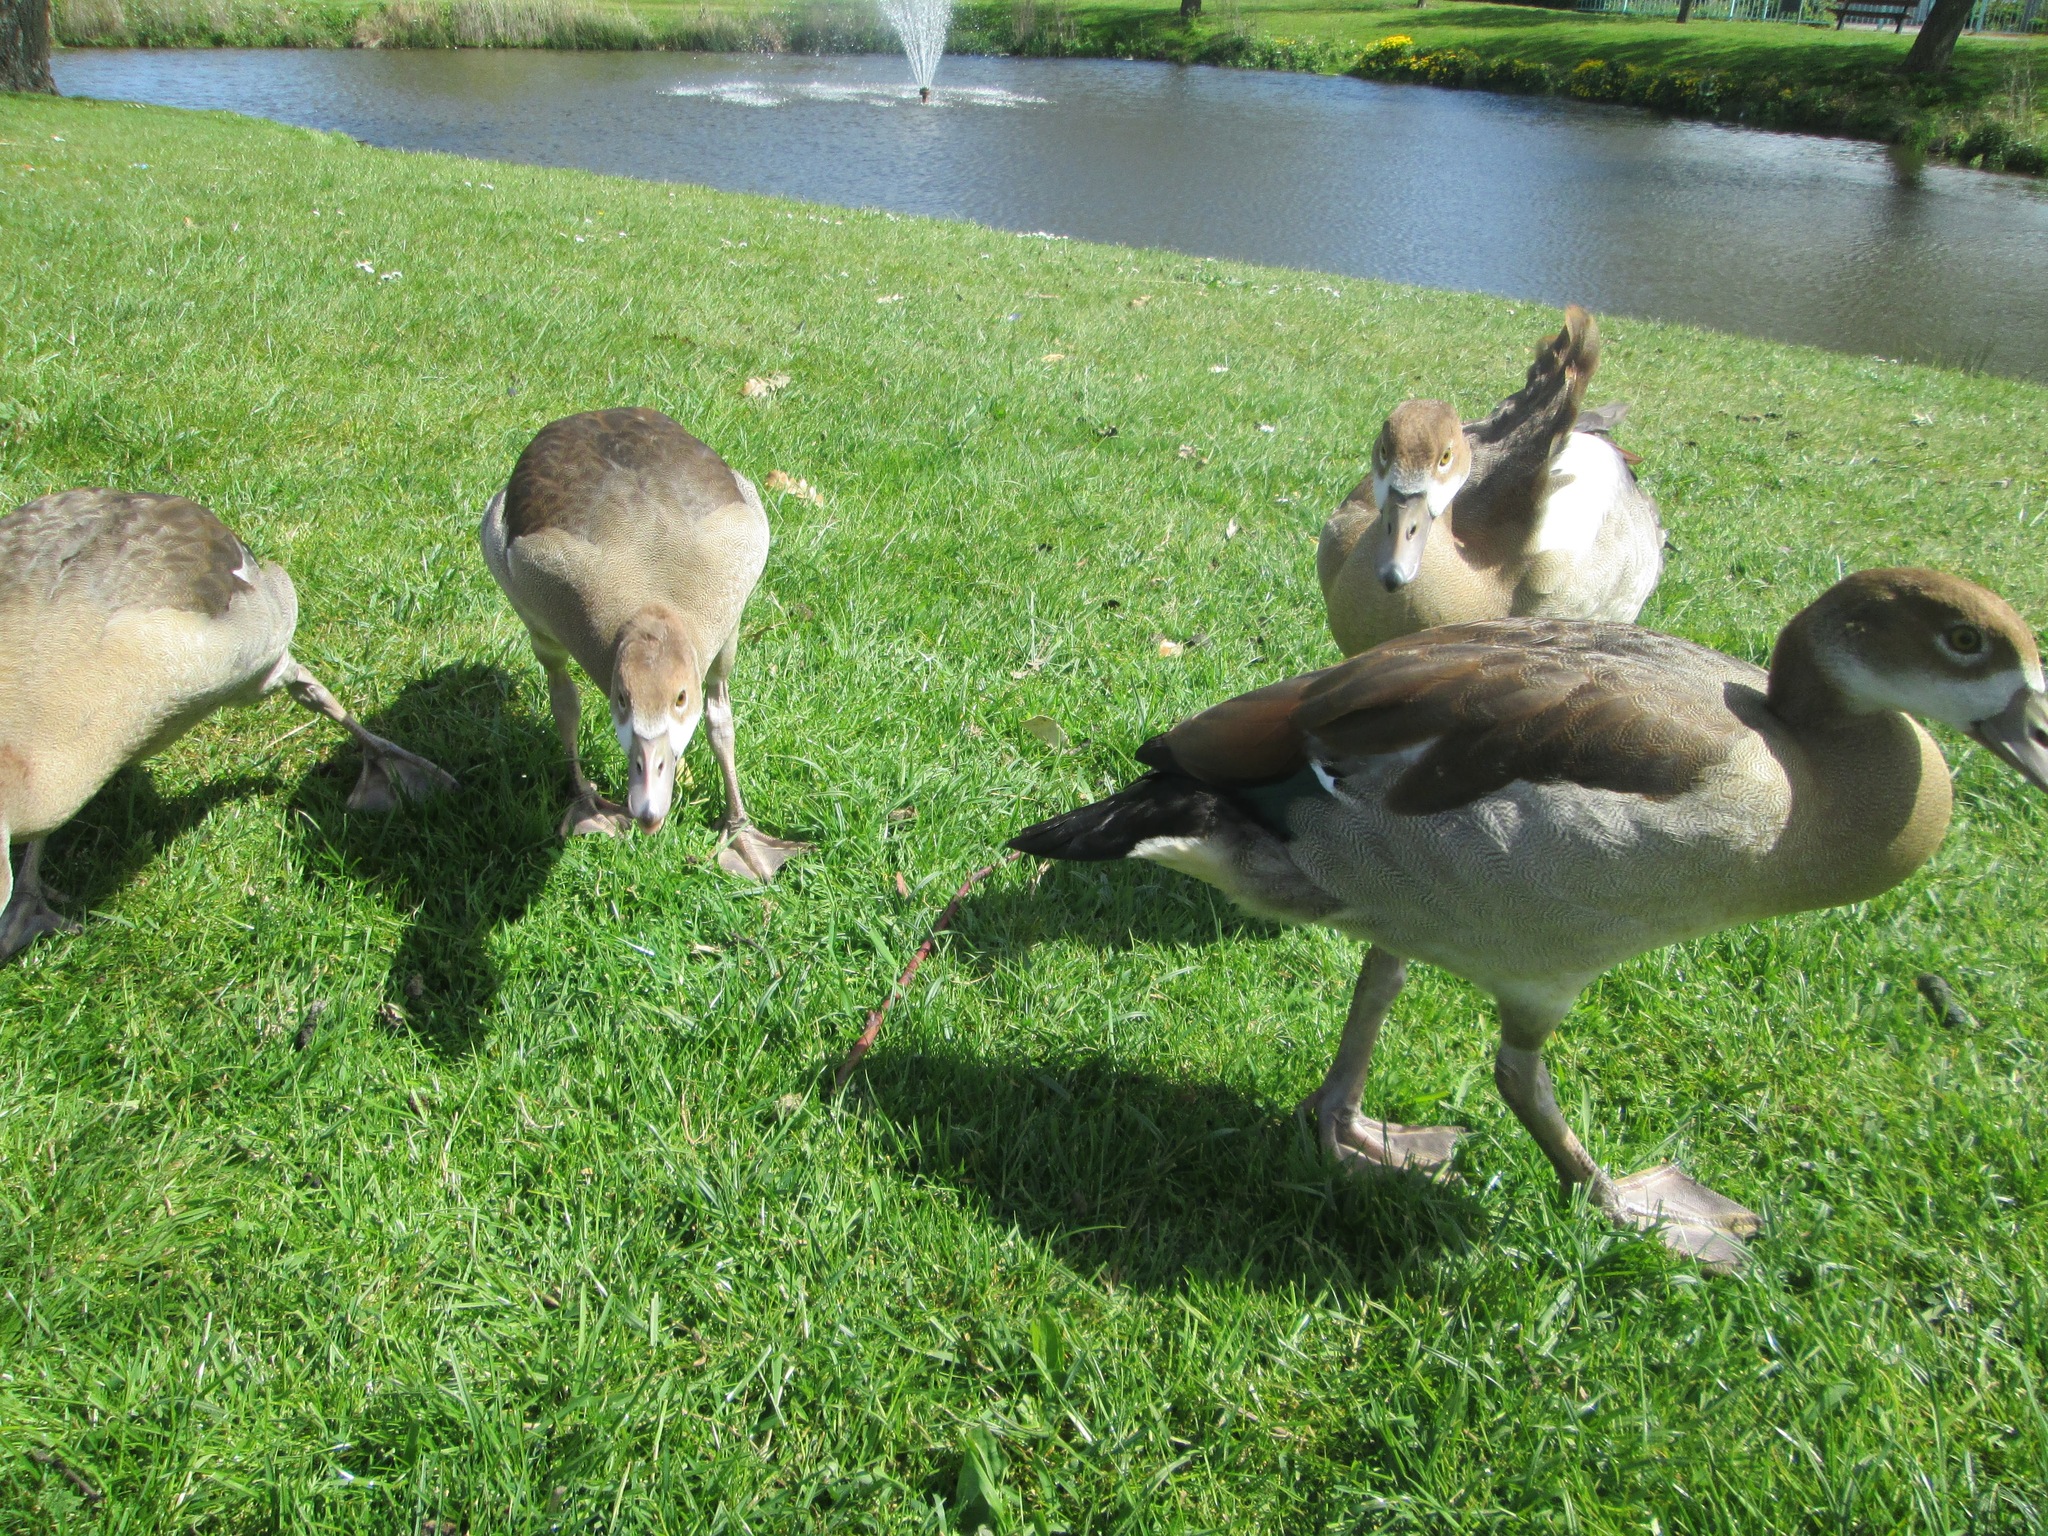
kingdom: Animalia
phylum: Chordata
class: Aves
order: Anseriformes
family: Anatidae
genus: Alopochen
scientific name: Alopochen aegyptiaca
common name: Egyptian goose
